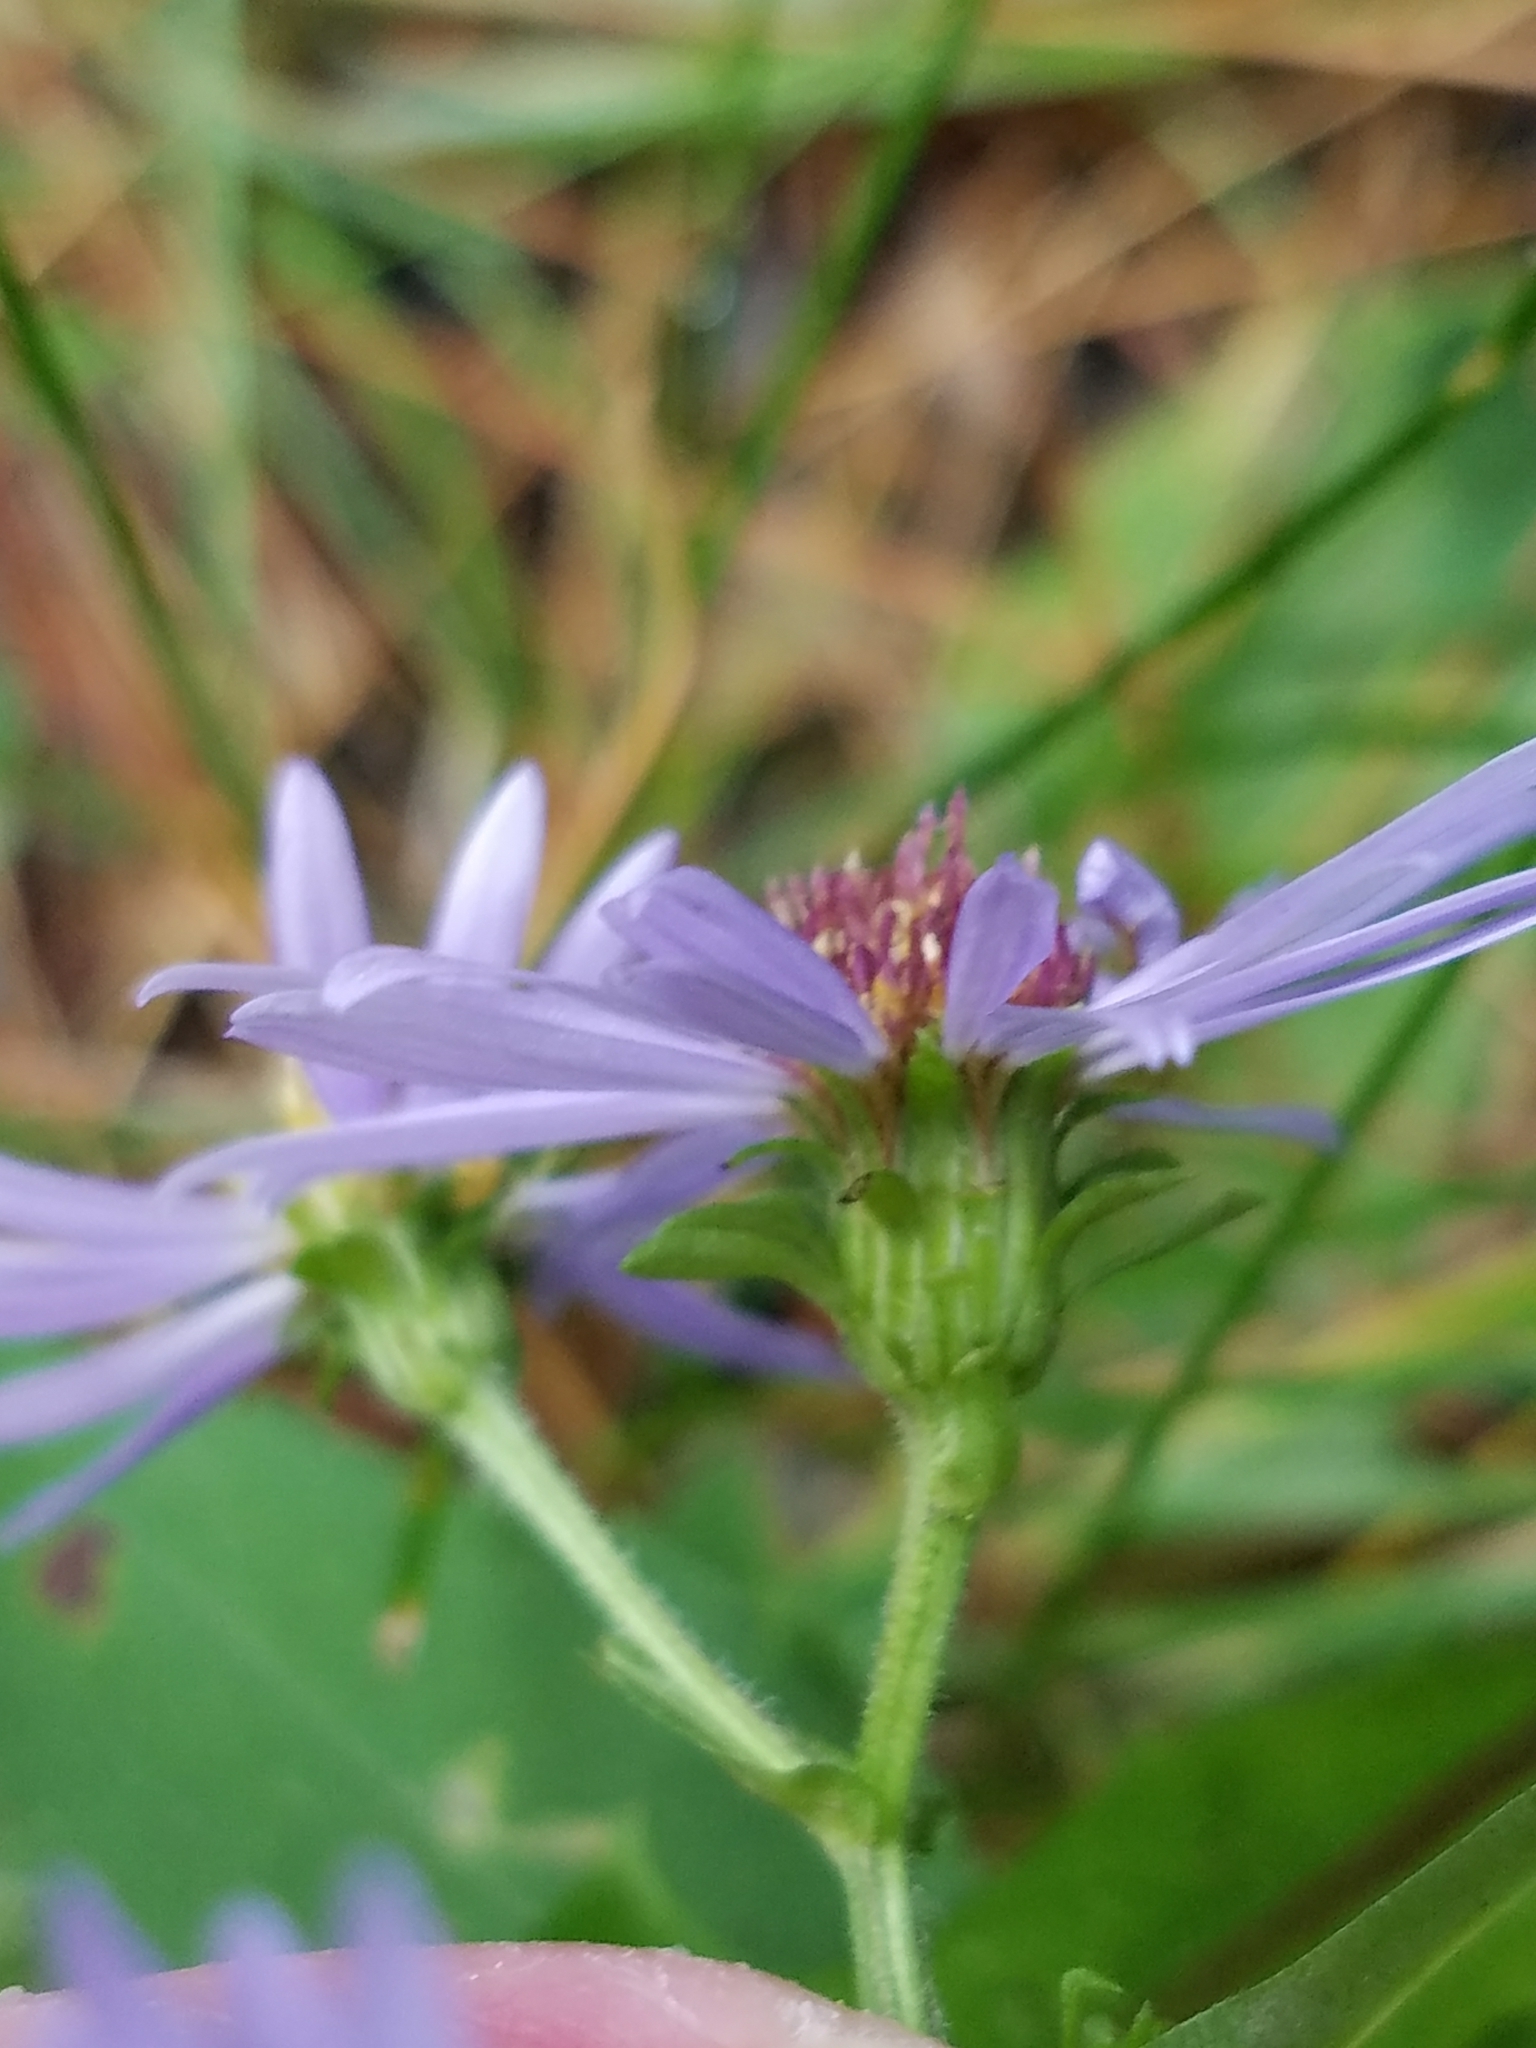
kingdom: Plantae
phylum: Tracheophyta
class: Magnoliopsida
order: Asterales
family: Asteraceae
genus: Symphyotrichum
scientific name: Symphyotrichum prenanthoides
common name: Crooked-stem aster
